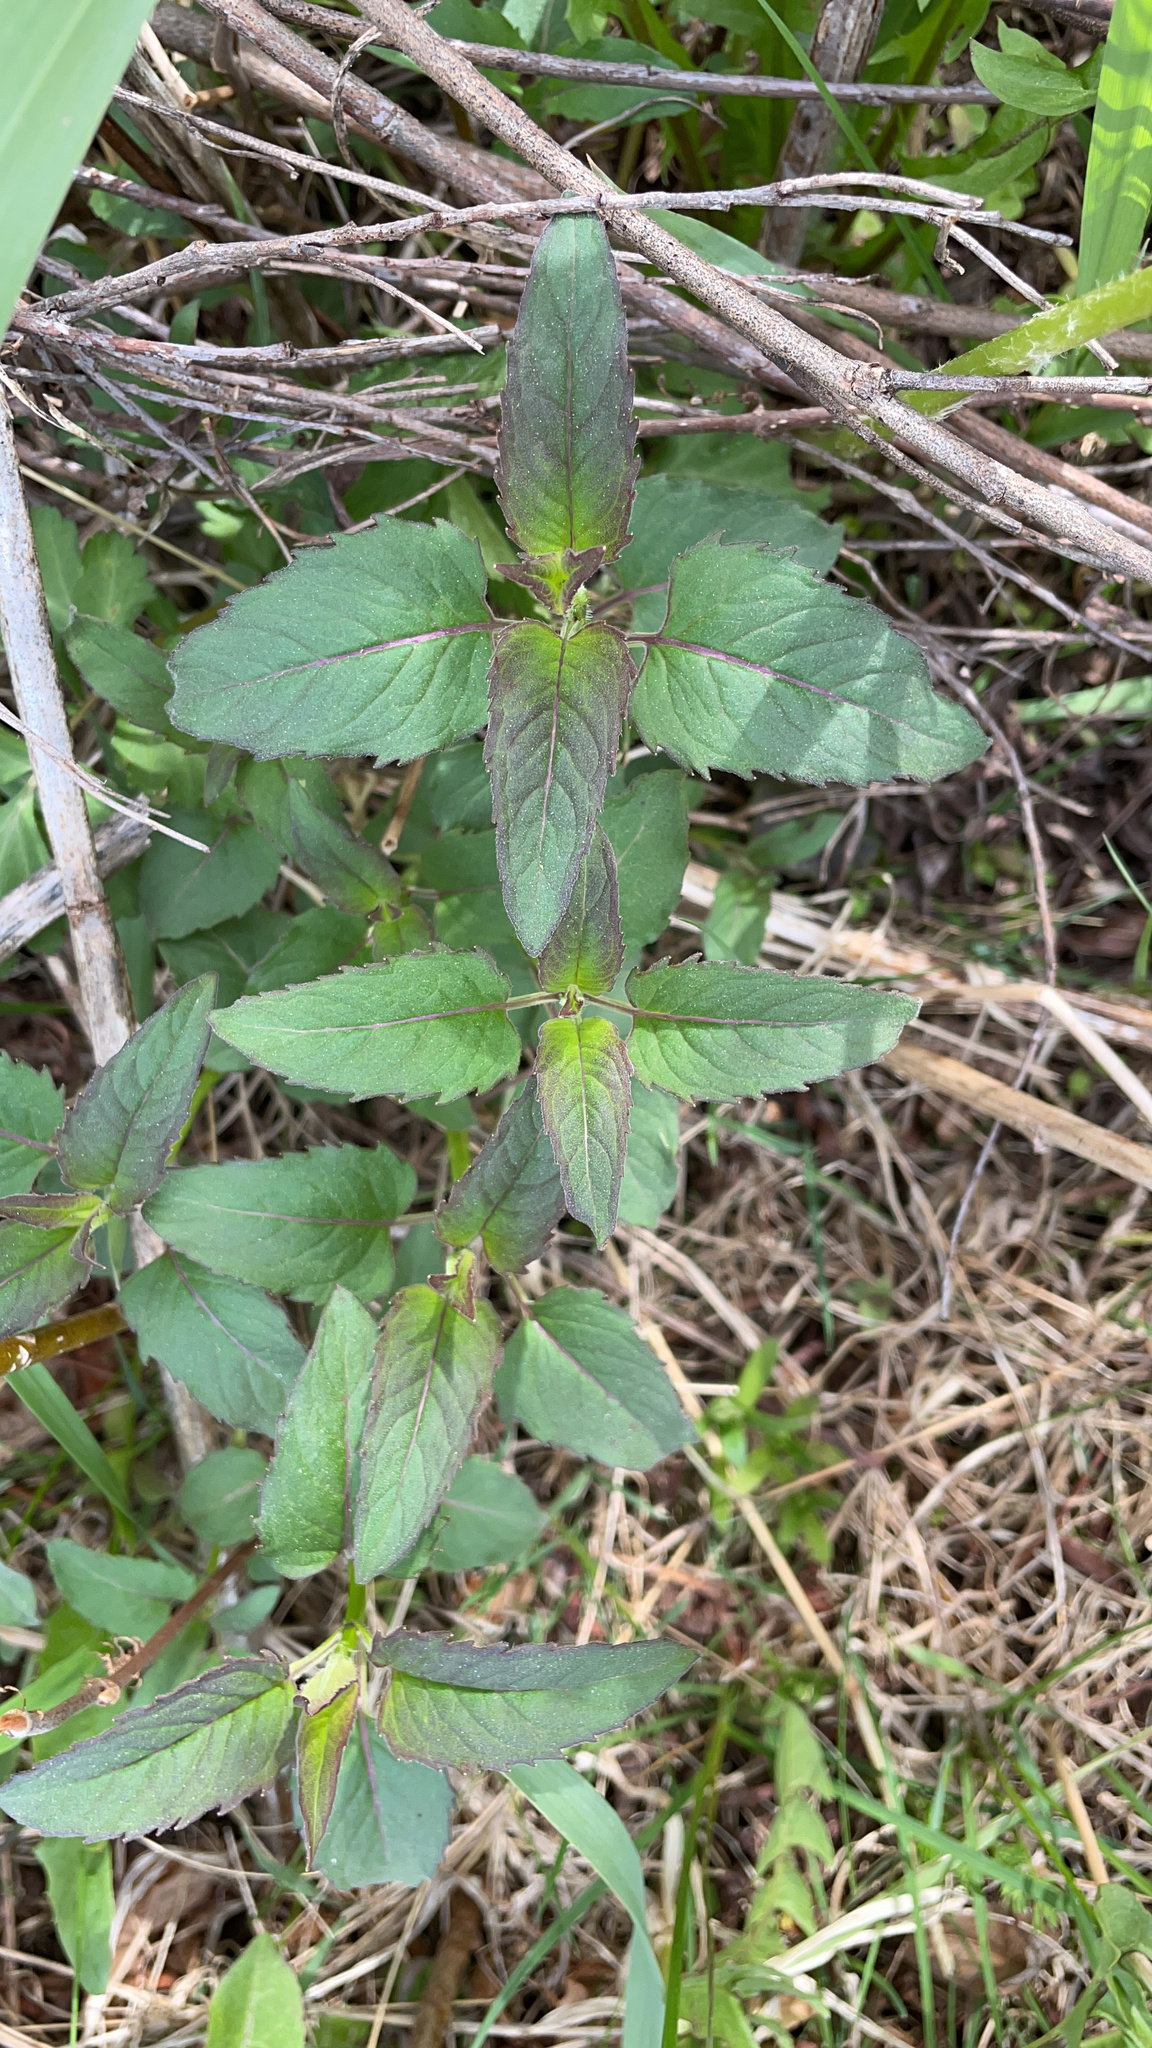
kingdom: Plantae
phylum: Tracheophyta
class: Magnoliopsida
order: Lamiales
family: Lamiaceae
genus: Monarda
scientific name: Monarda fistulosa
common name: Purple beebalm
